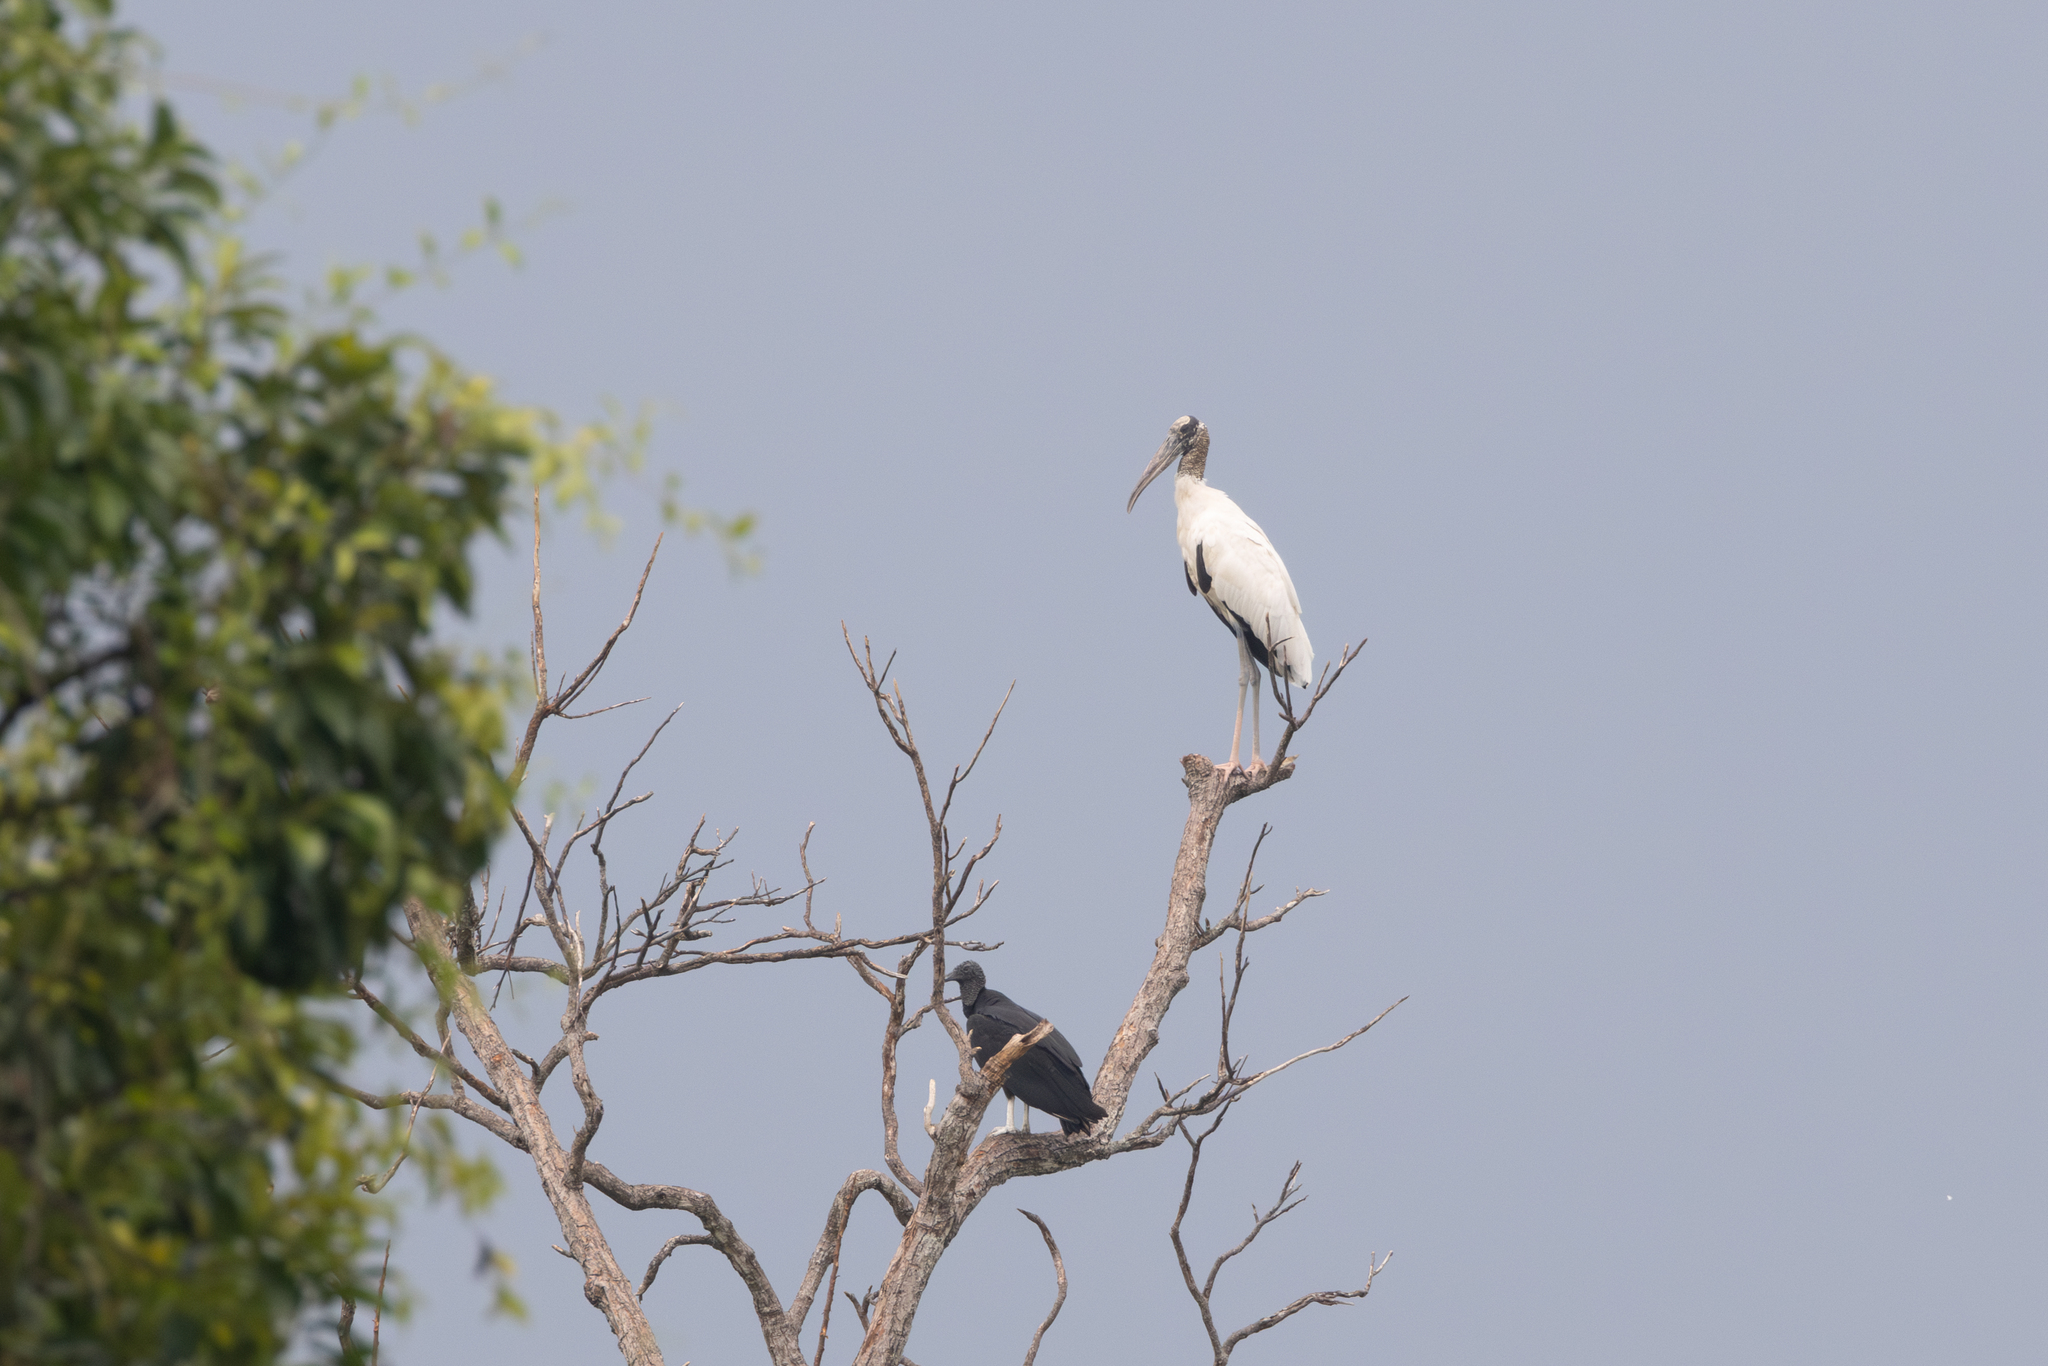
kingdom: Animalia
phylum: Chordata
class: Aves
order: Ciconiiformes
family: Ciconiidae
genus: Mycteria
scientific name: Mycteria americana
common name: Wood stork
